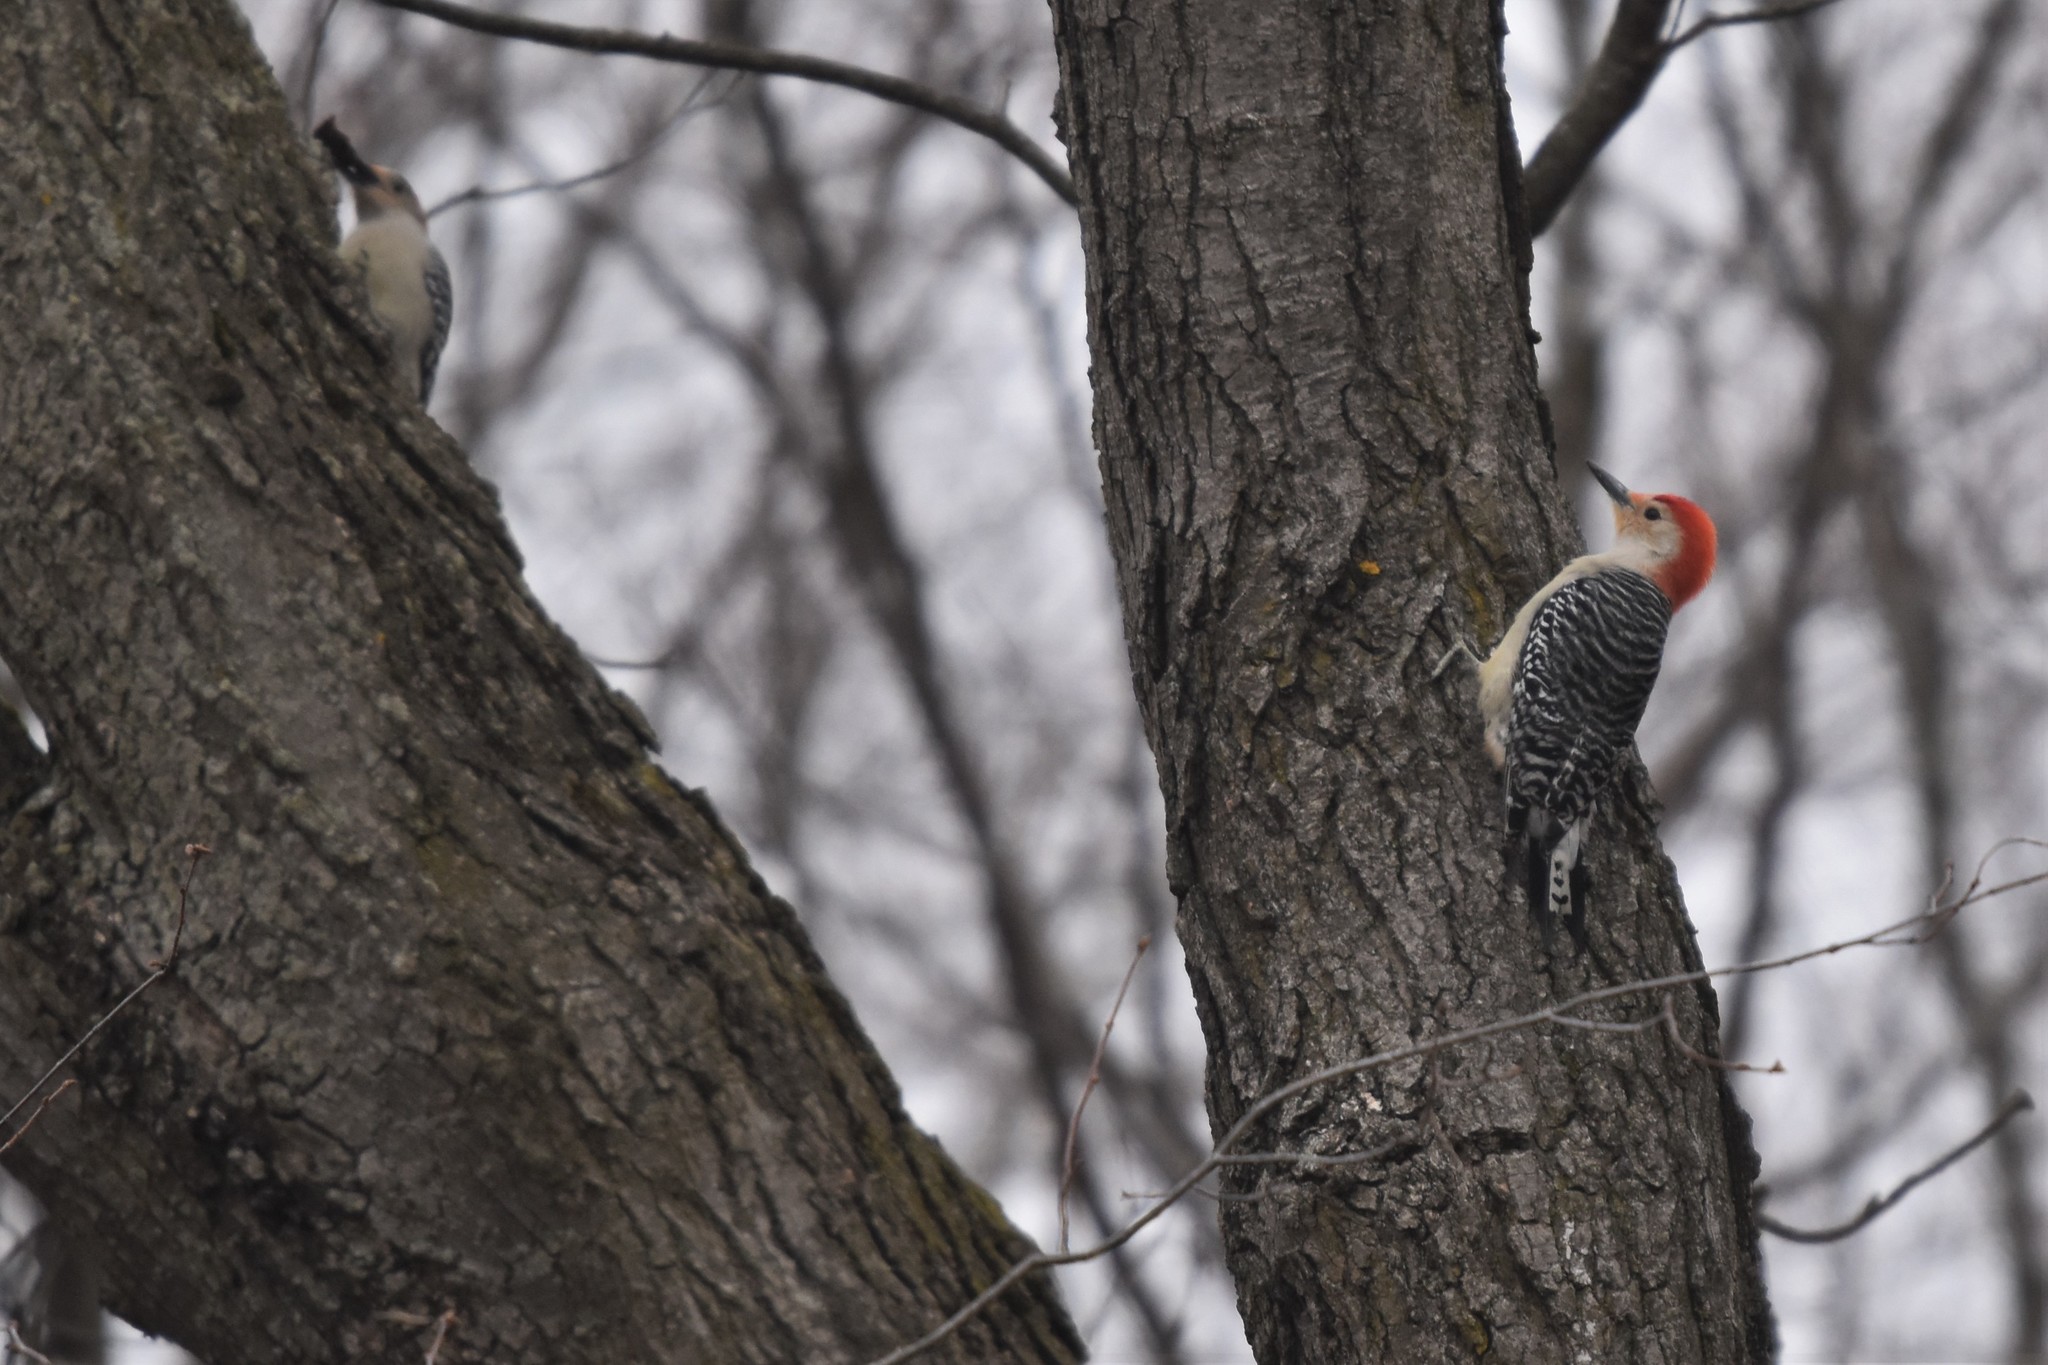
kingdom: Animalia
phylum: Chordata
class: Aves
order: Piciformes
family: Picidae
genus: Melanerpes
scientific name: Melanerpes carolinus
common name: Red-bellied woodpecker
